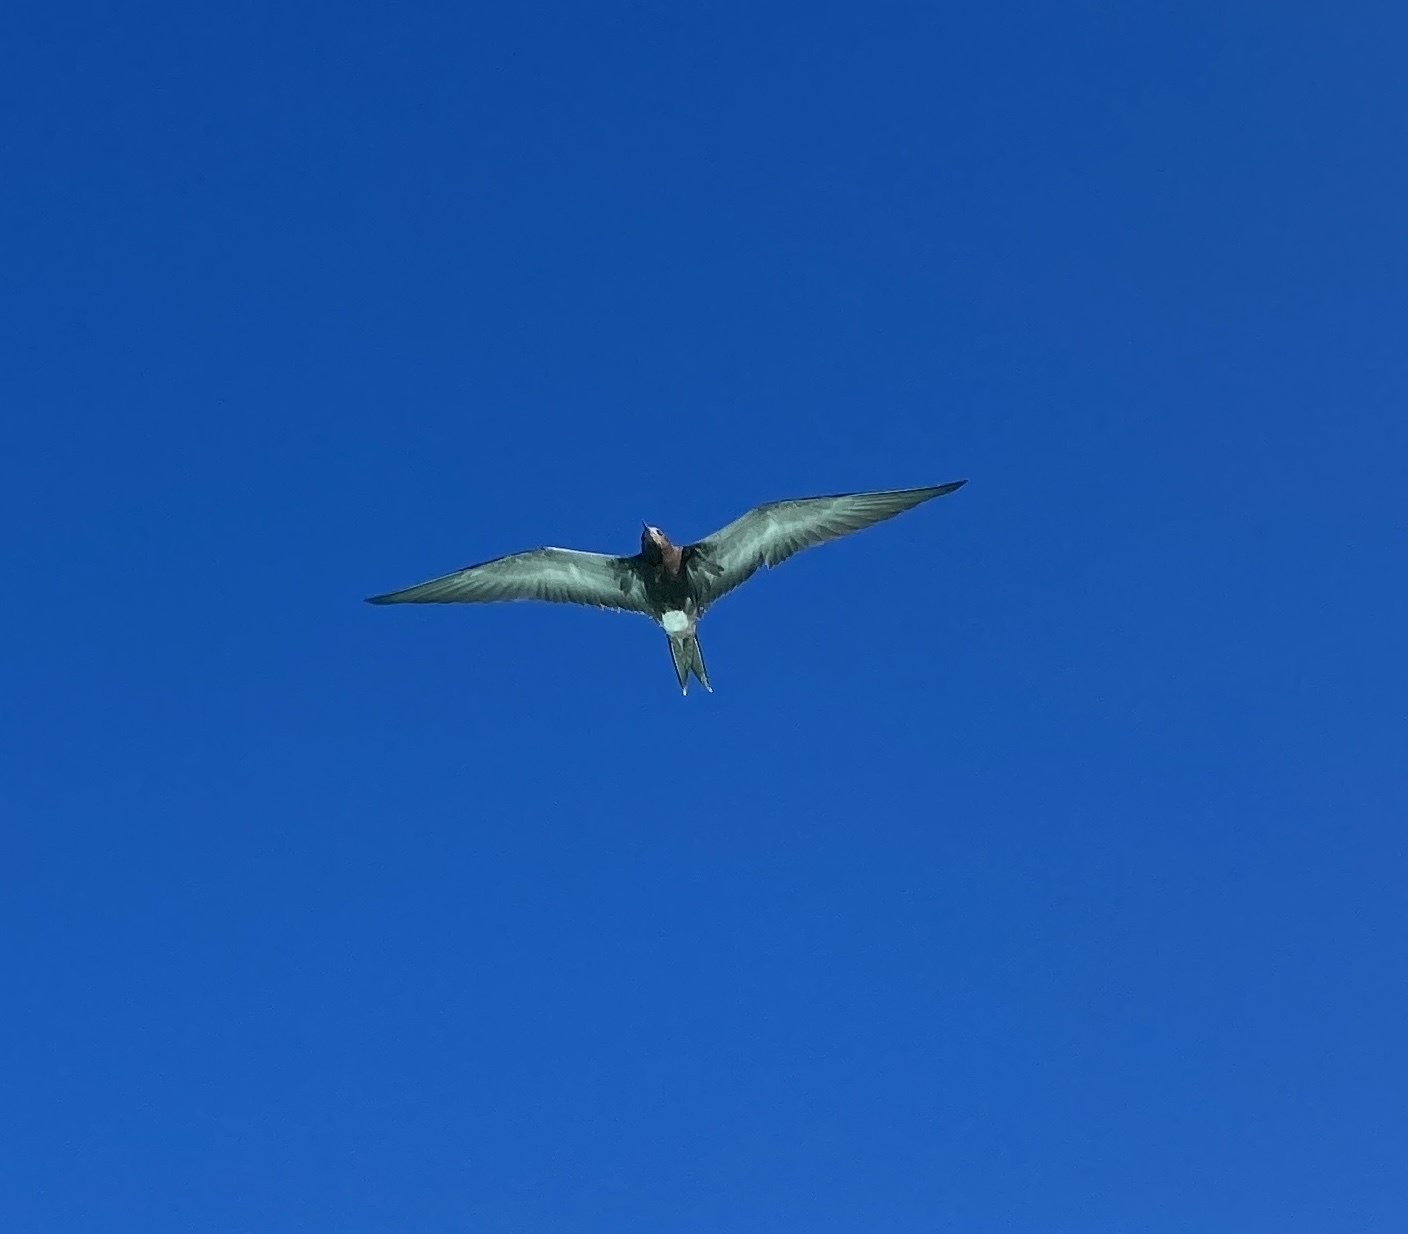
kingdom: Animalia
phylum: Chordata
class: Aves
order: Charadriiformes
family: Laridae
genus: Onychoprion
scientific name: Onychoprion fuscatus
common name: Sooty tern
